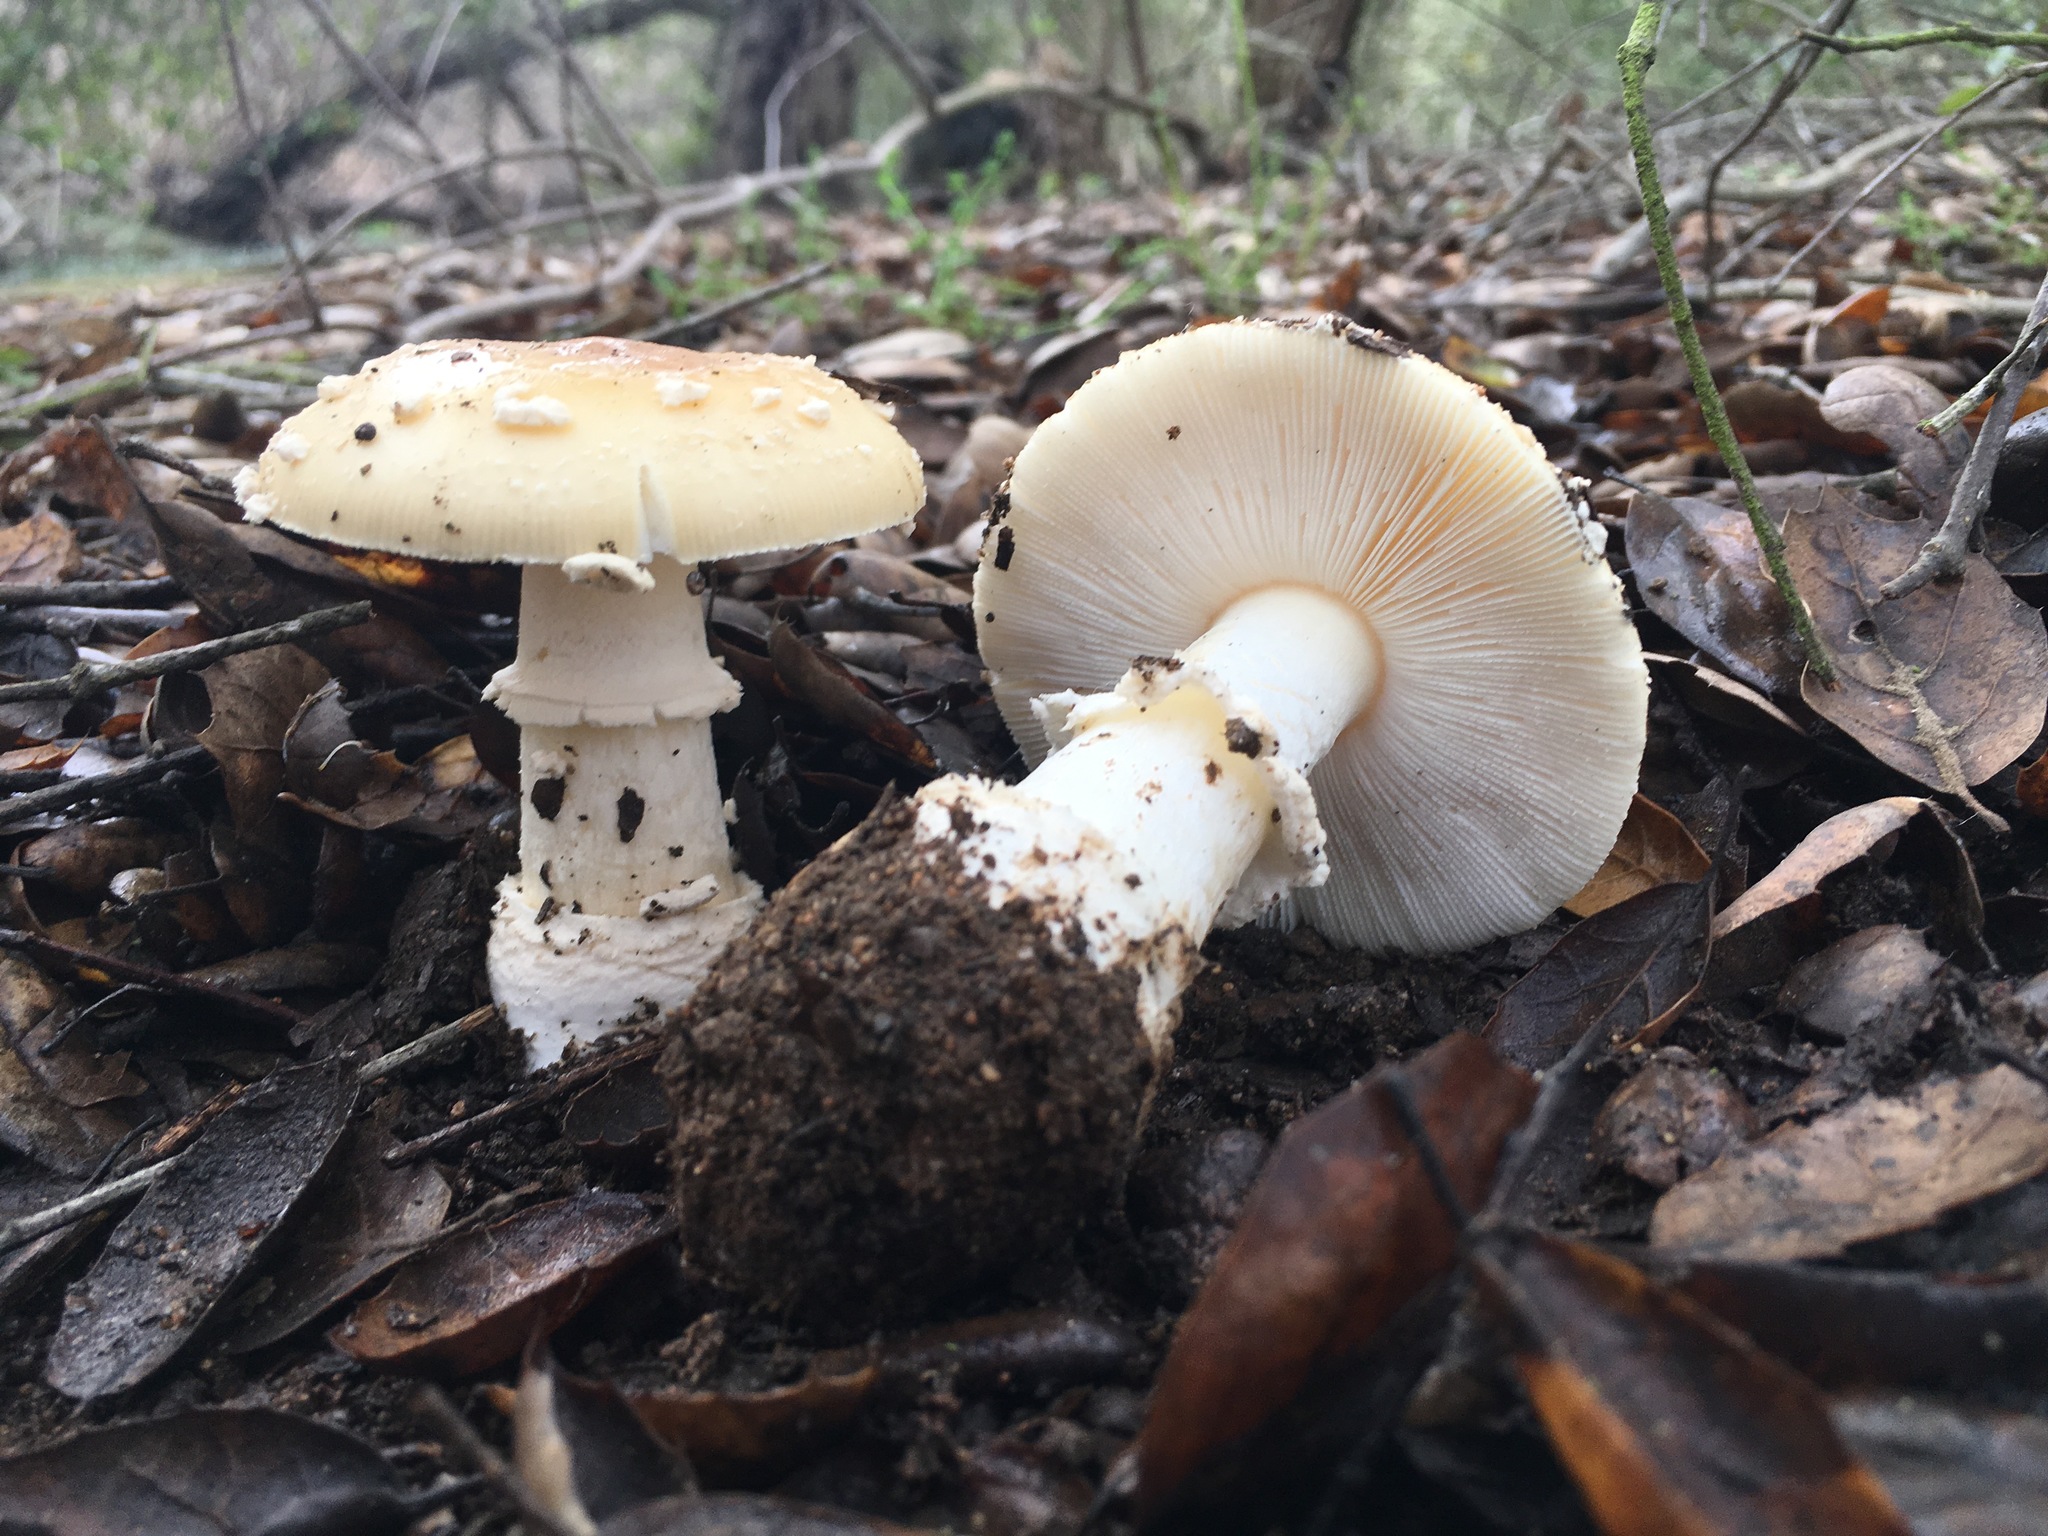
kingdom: Fungi
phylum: Basidiomycota
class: Agaricomycetes
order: Agaricales
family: Amanitaceae
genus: Amanita
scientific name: Amanita pantherina
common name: Panthercap
